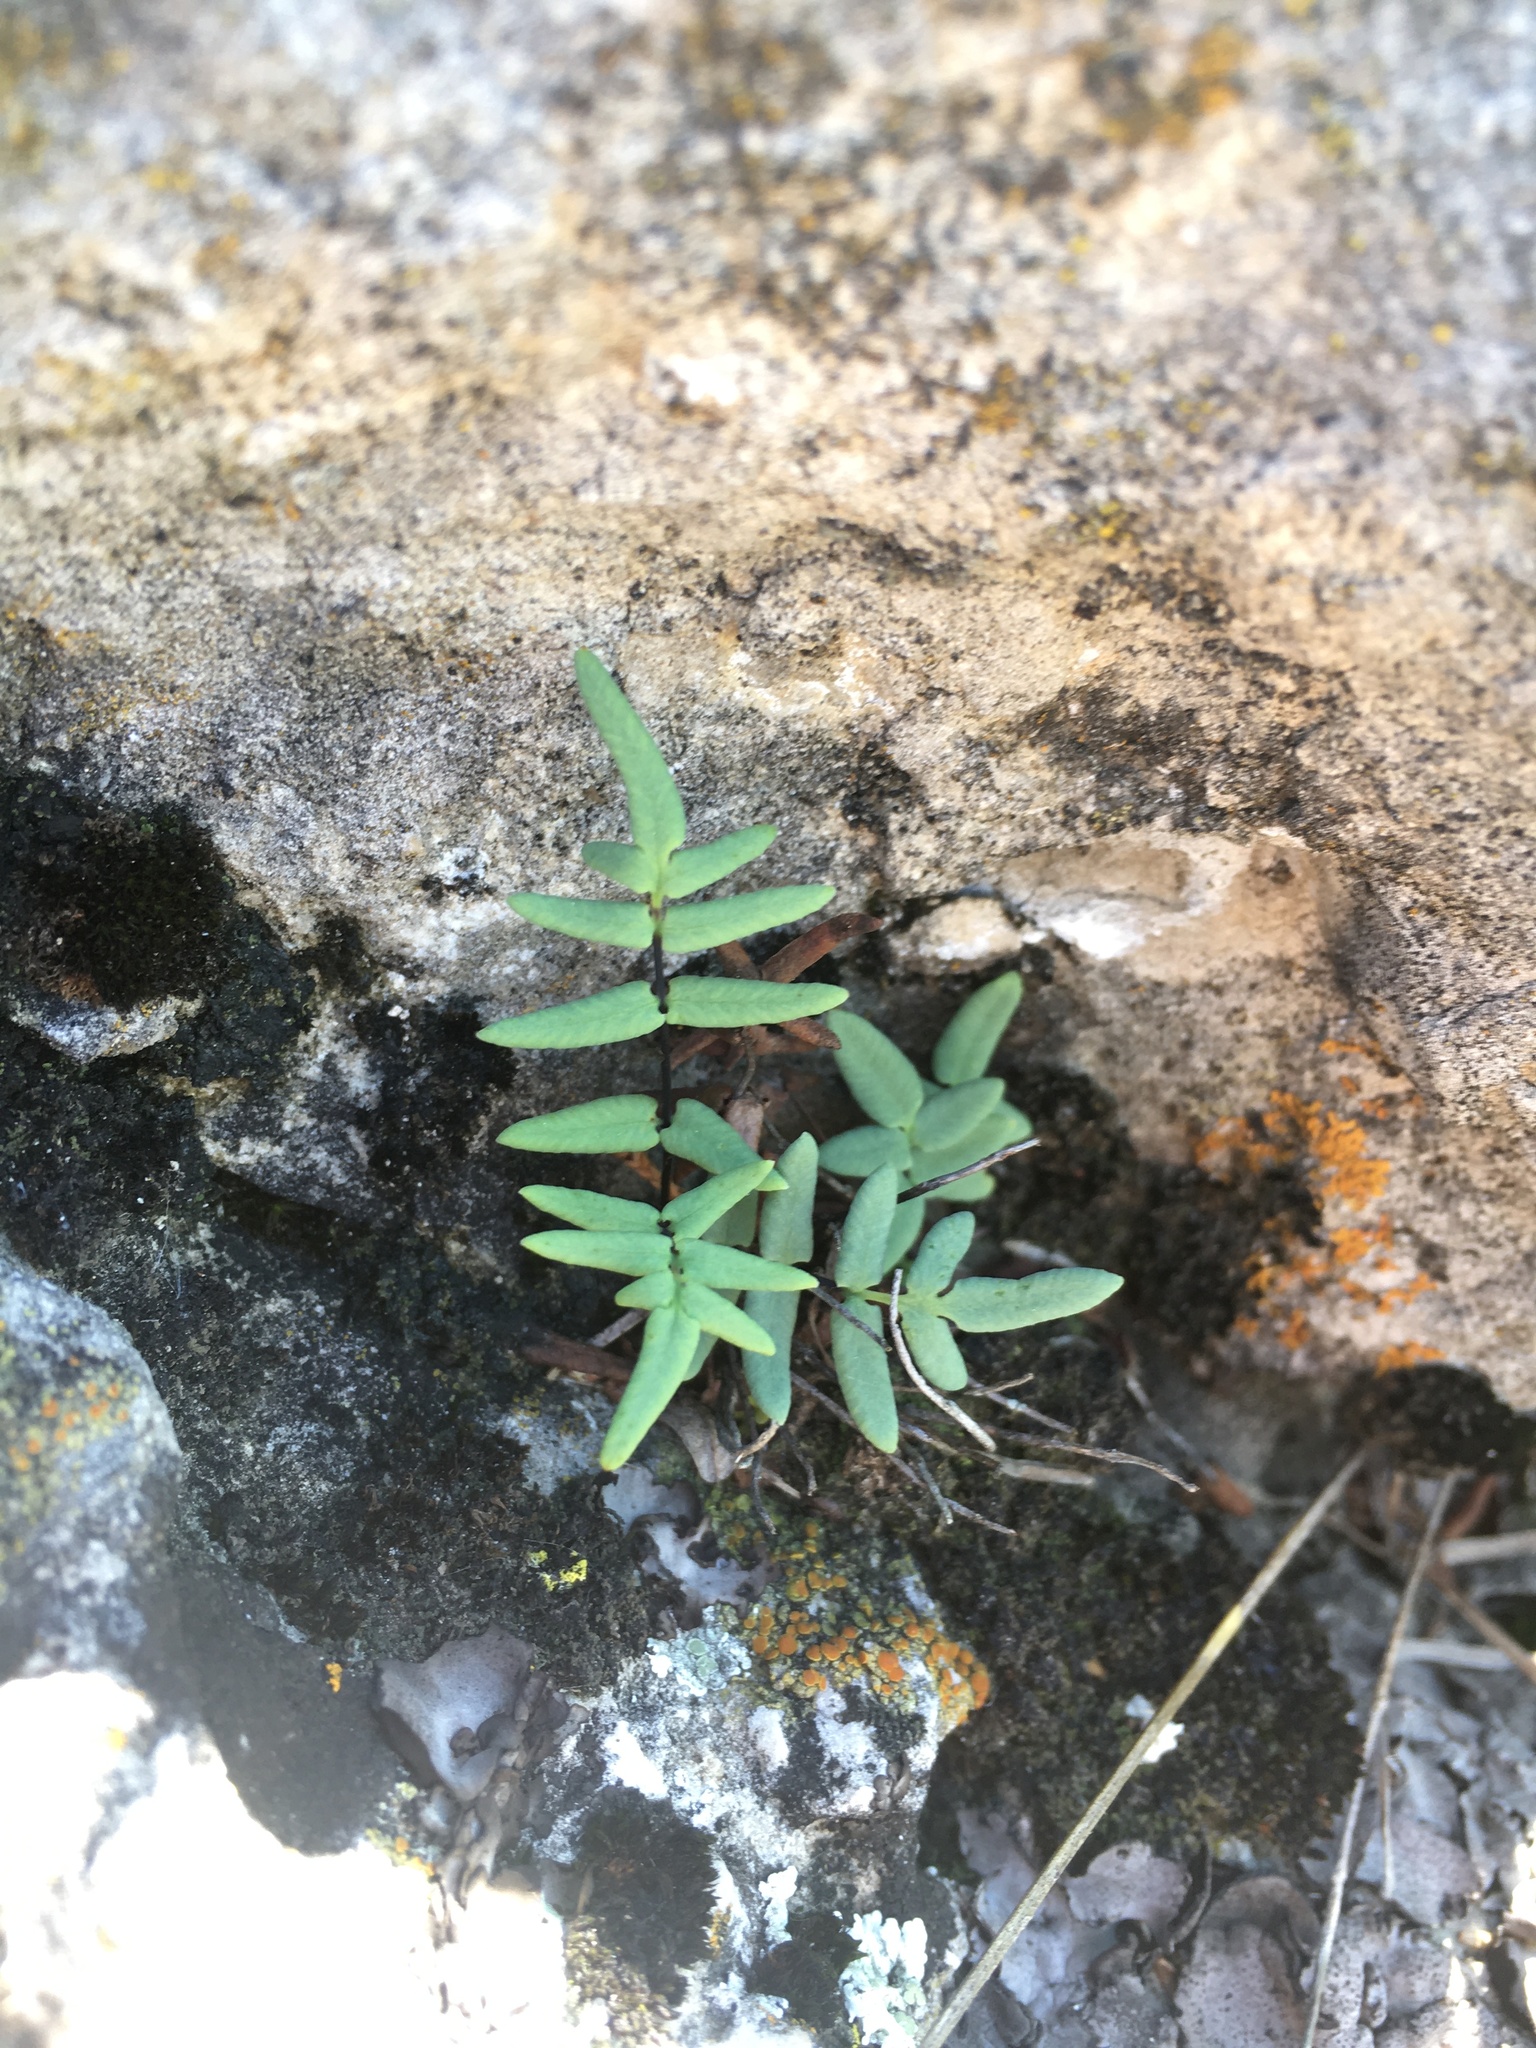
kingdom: Plantae
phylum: Tracheophyta
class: Polypodiopsida
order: Polypodiales
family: Pteridaceae
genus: Pellaea
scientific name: Pellaea glabella
